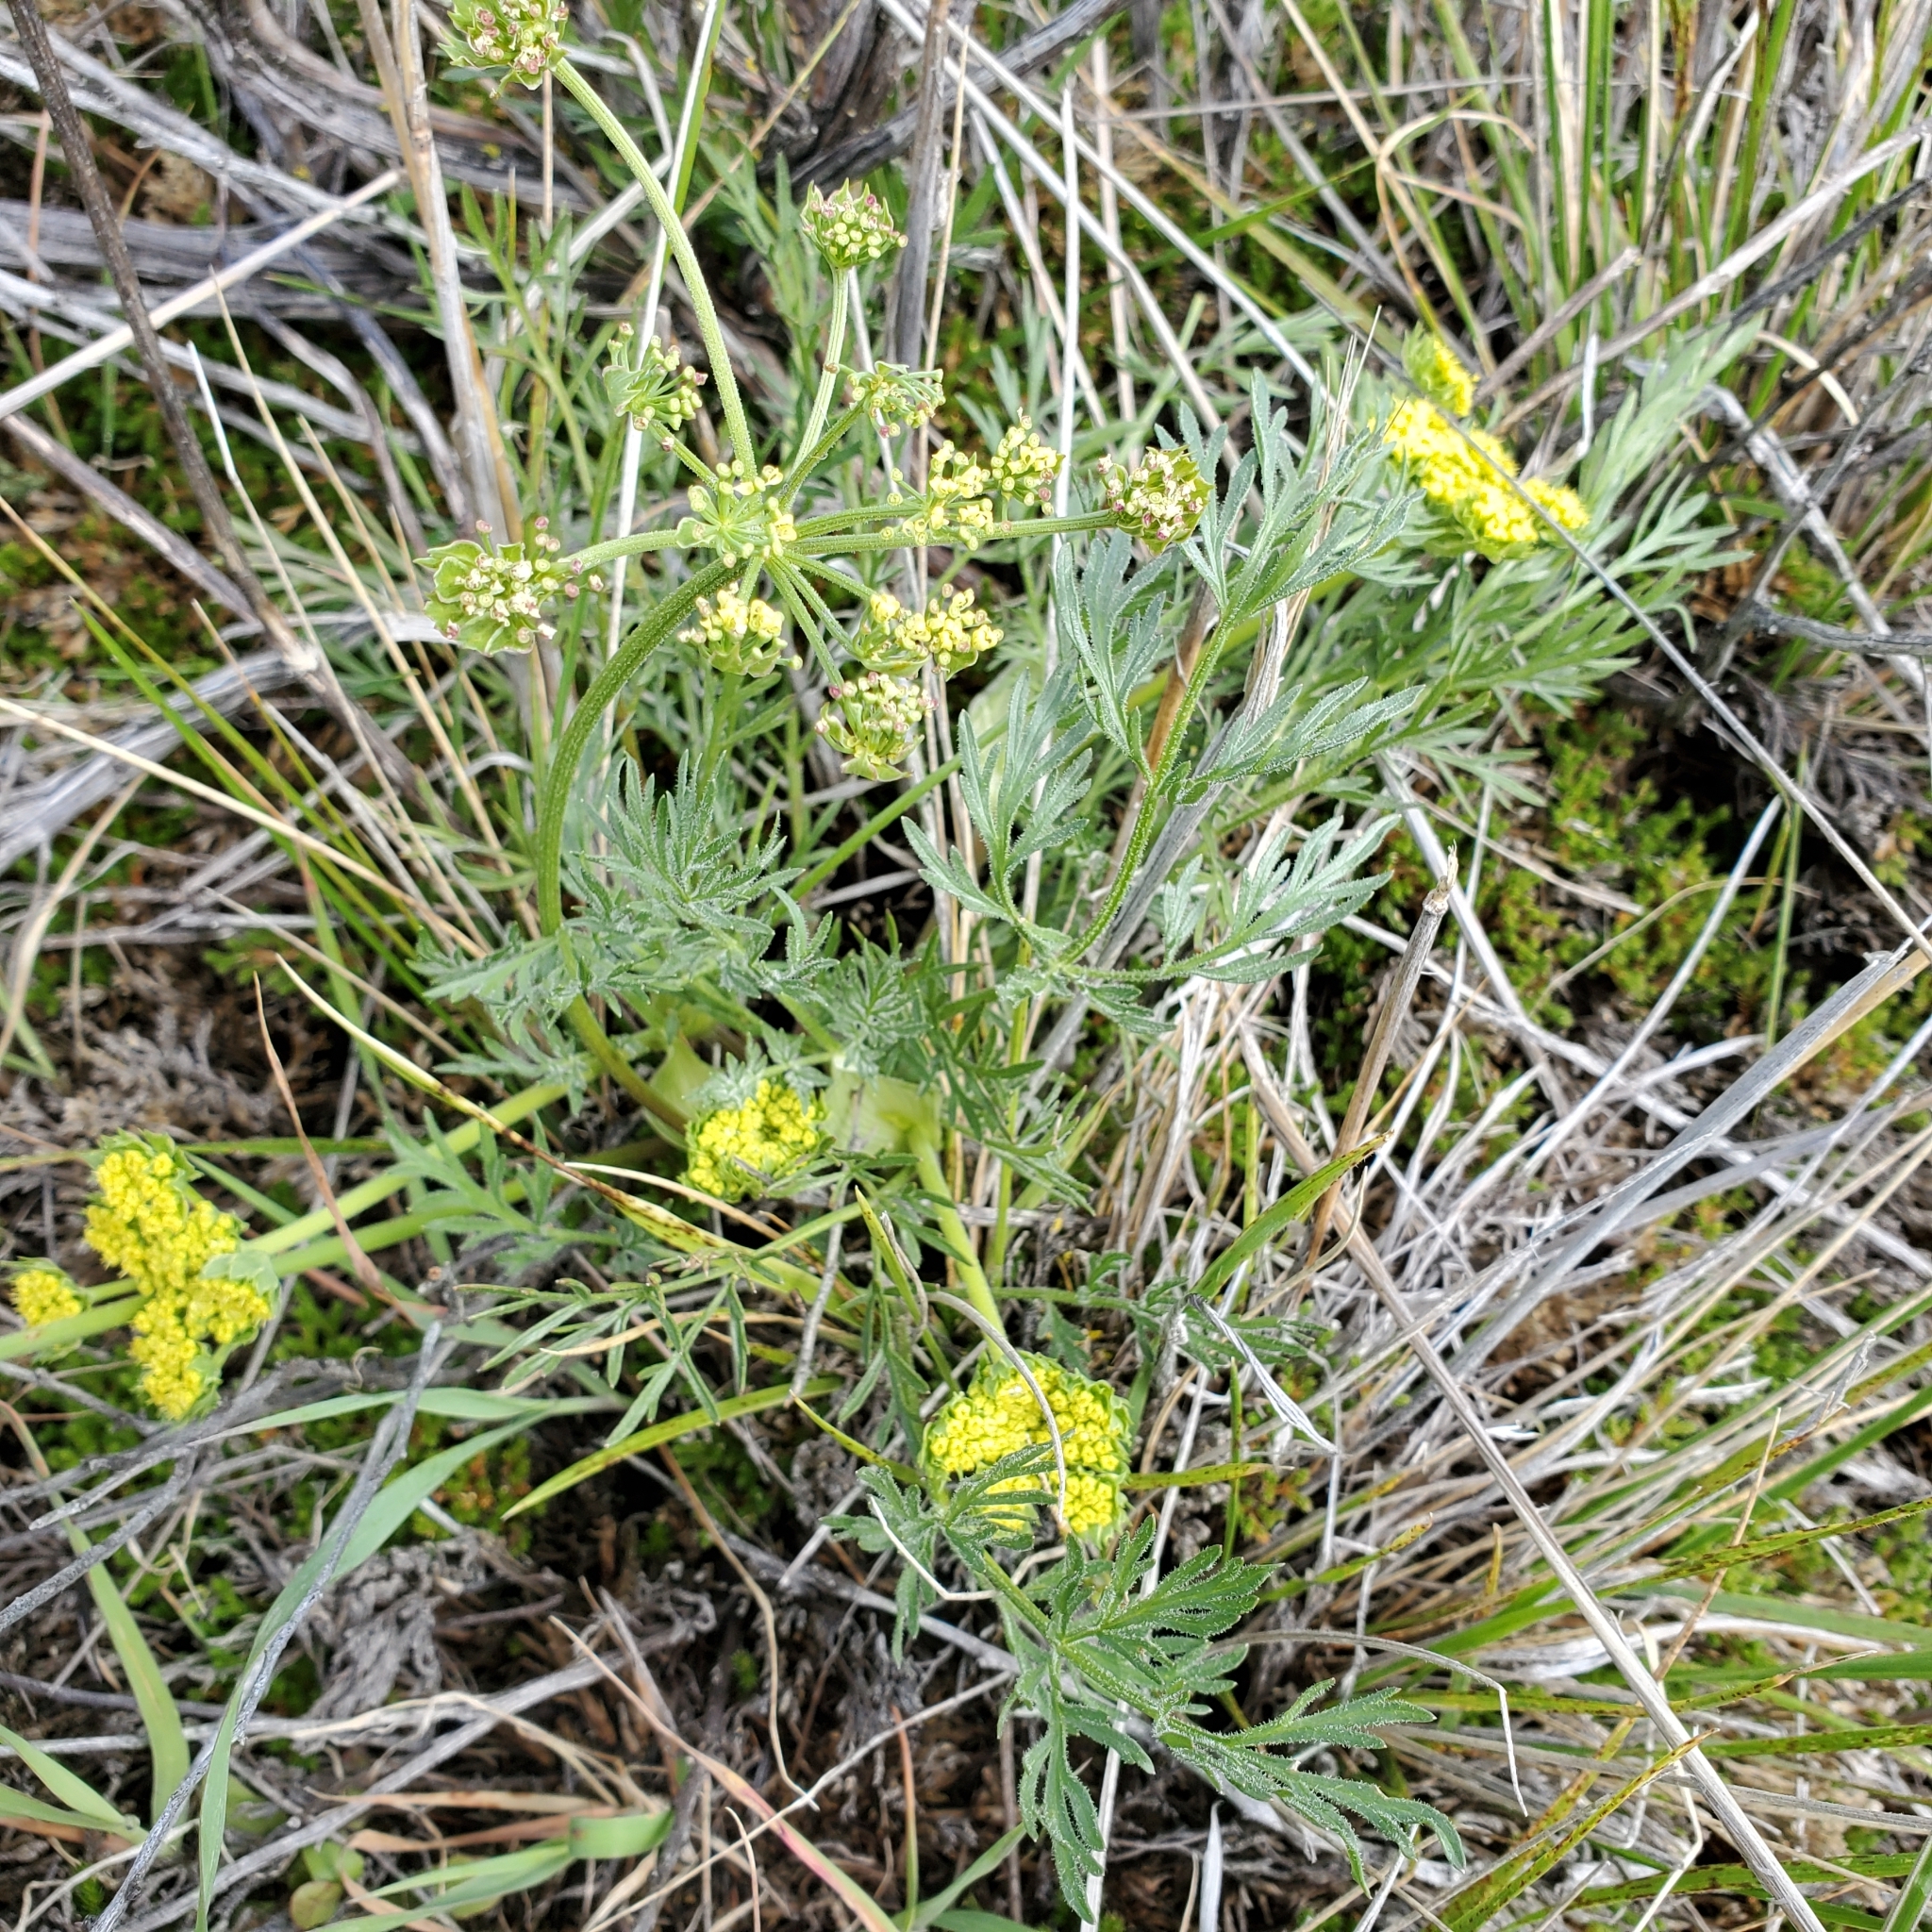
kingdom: Plantae
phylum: Tracheophyta
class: Magnoliopsida
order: Apiales
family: Apiaceae
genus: Lomatium
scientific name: Lomatium utriculatum
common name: Fine-leaf desert-parsley
